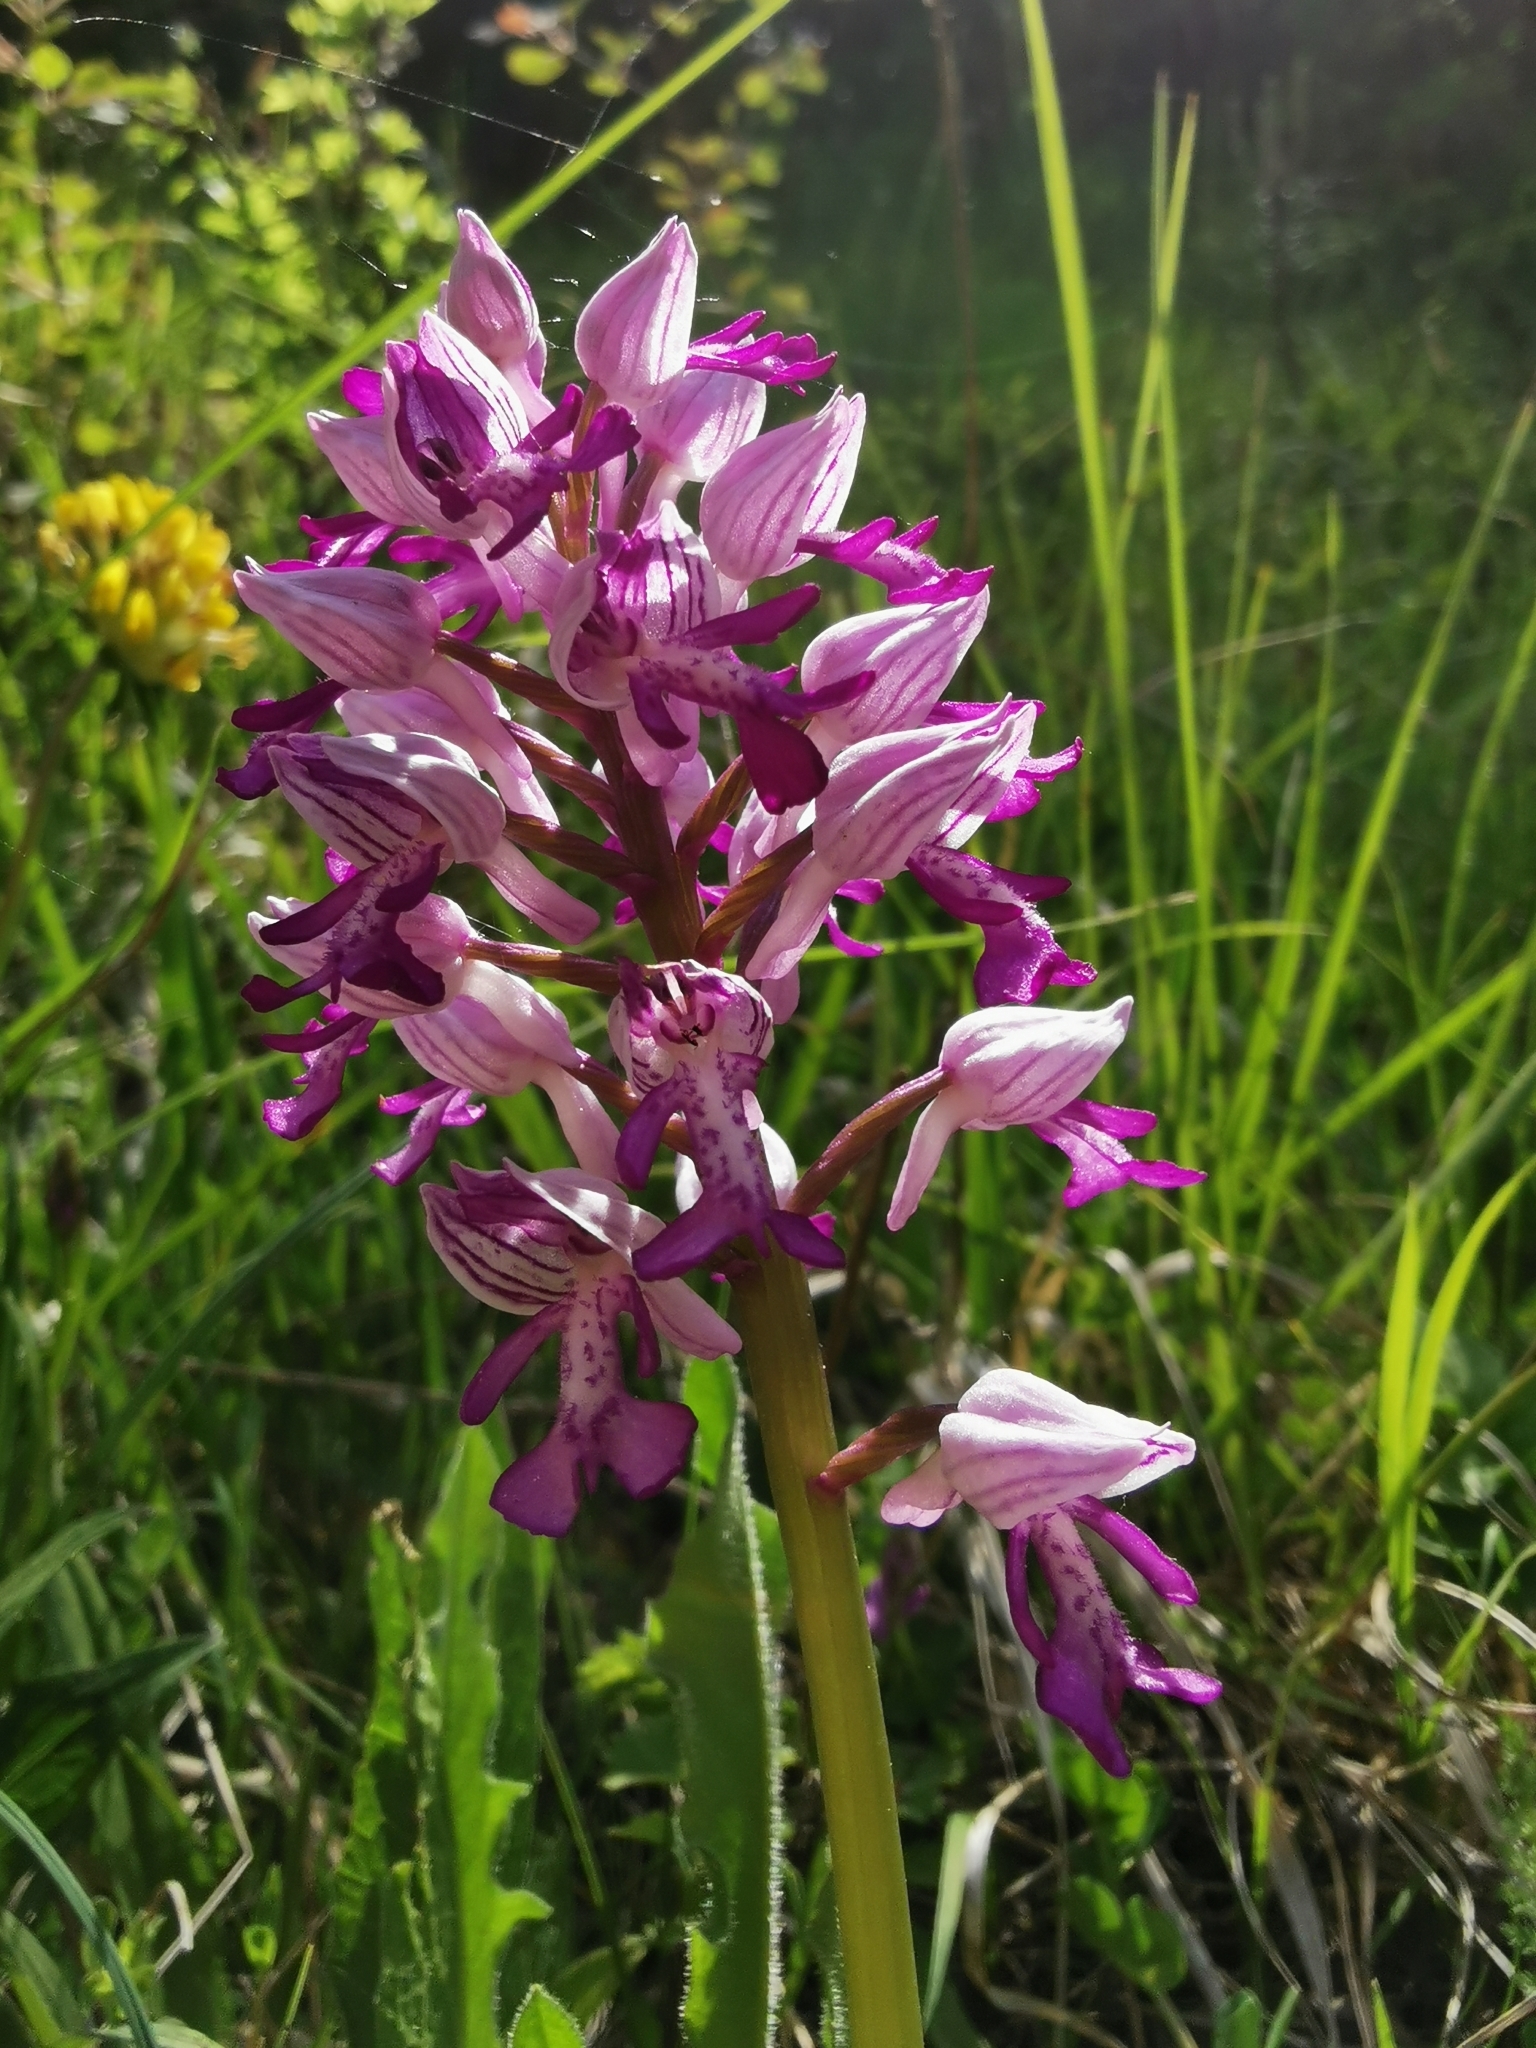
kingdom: Plantae
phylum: Tracheophyta
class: Liliopsida
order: Asparagales
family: Orchidaceae
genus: Orchis
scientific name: Orchis militaris
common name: Military orchid
